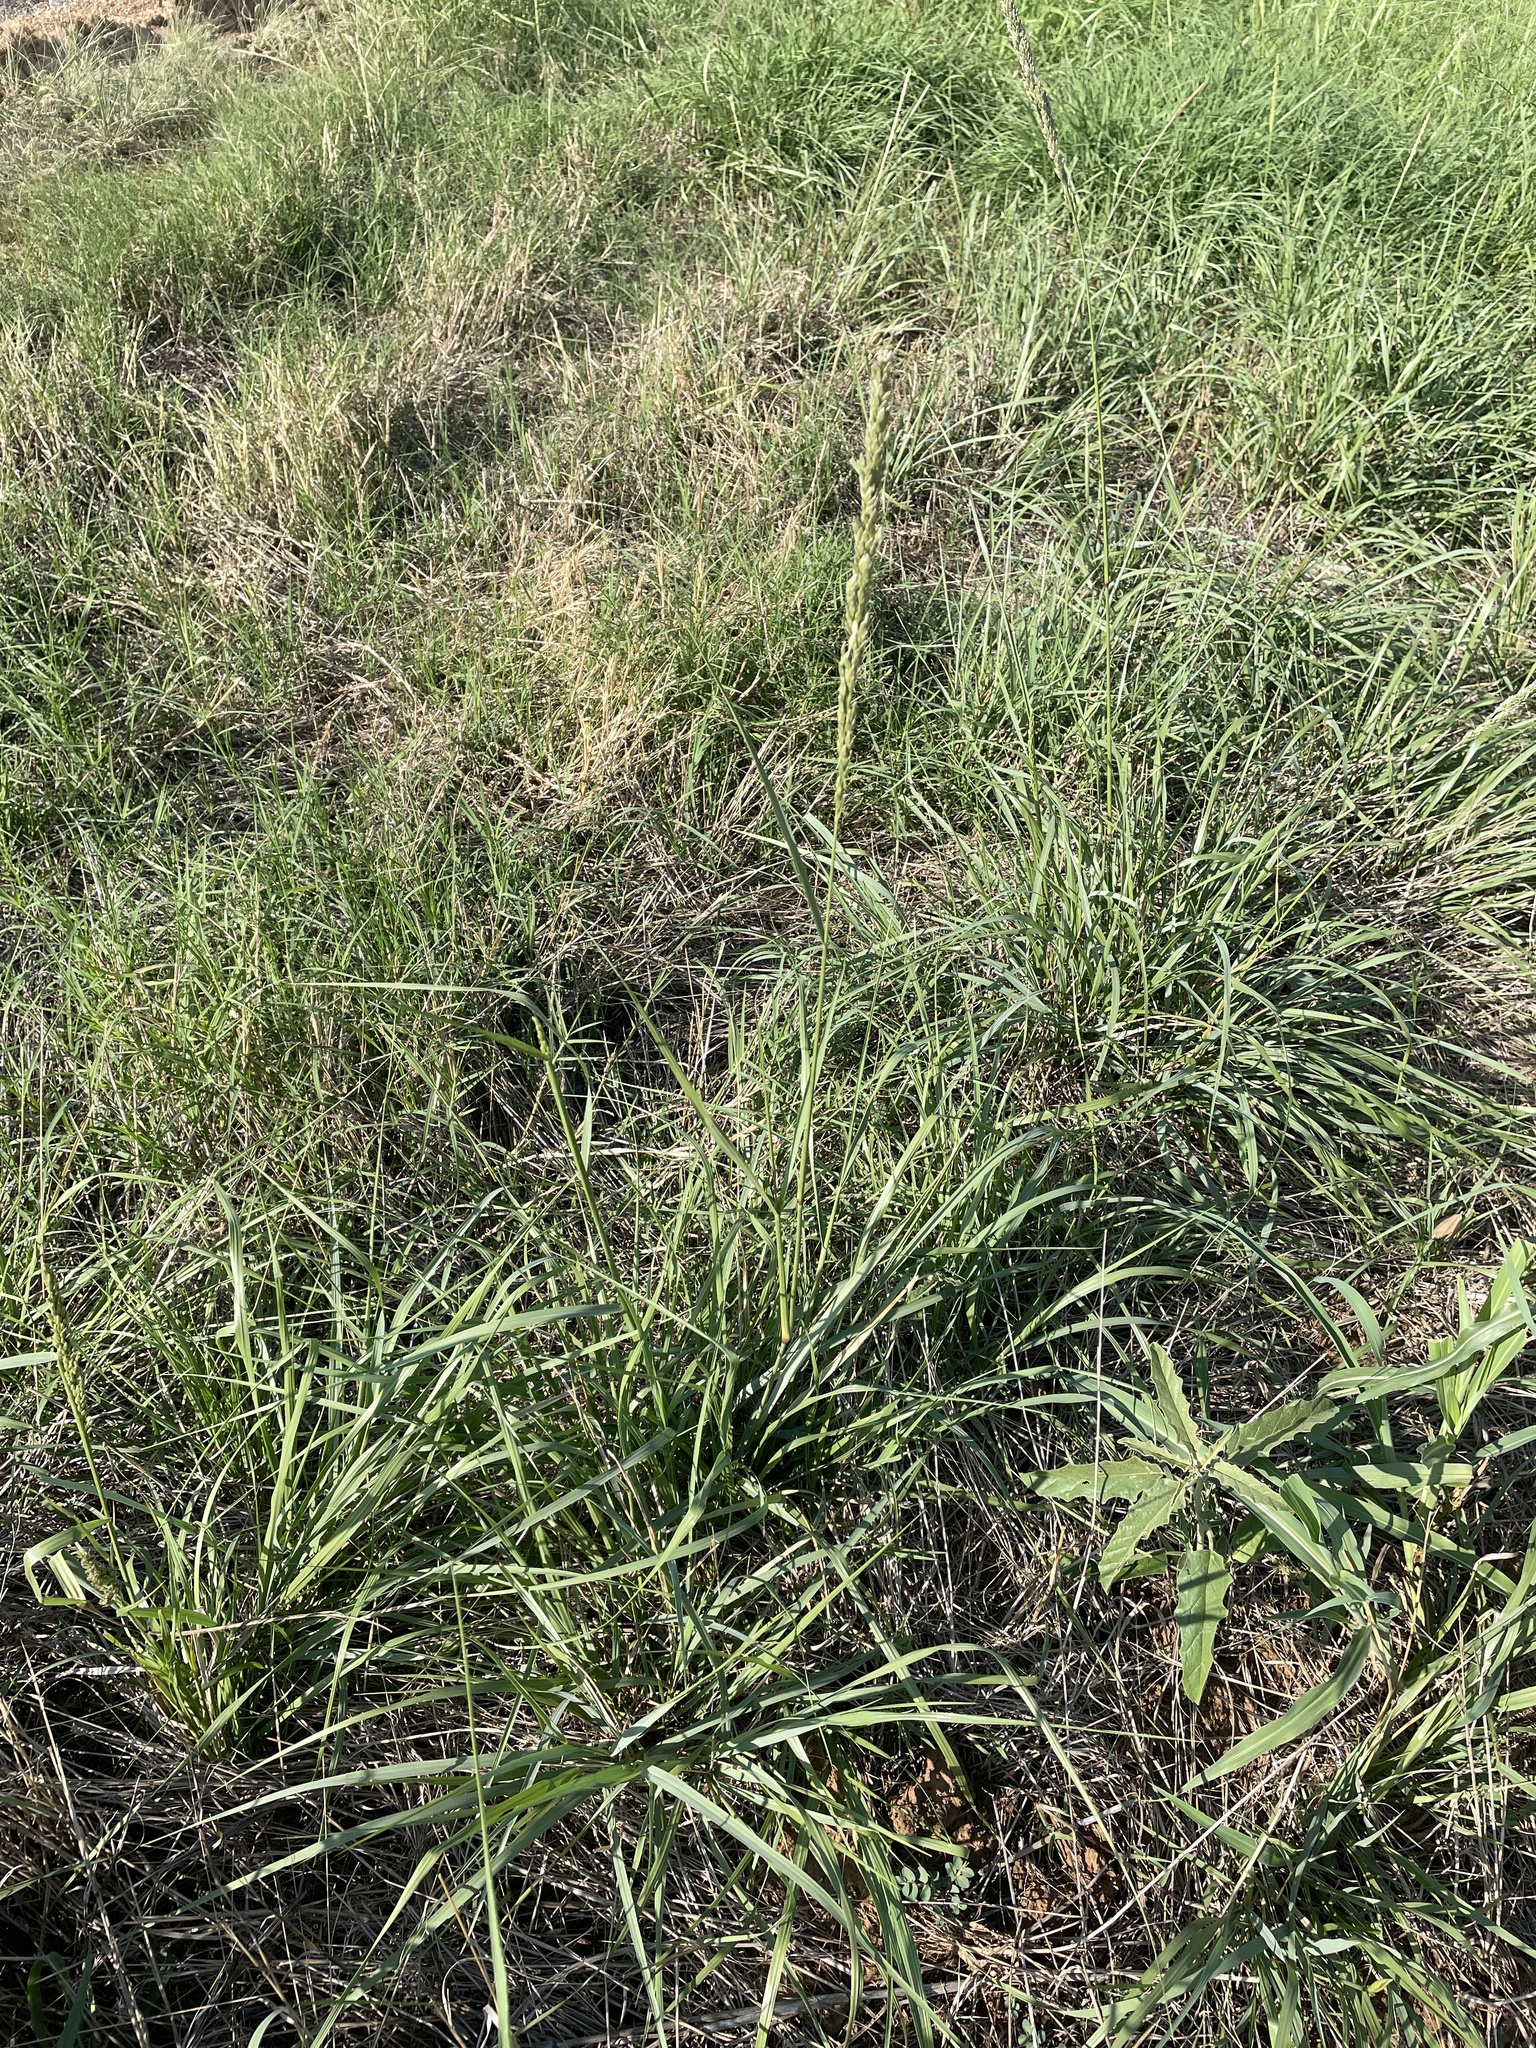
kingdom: Plantae
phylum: Tracheophyta
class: Liliopsida
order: Poales
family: Poaceae
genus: Tridens
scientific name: Tridens albescens
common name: White tridens
